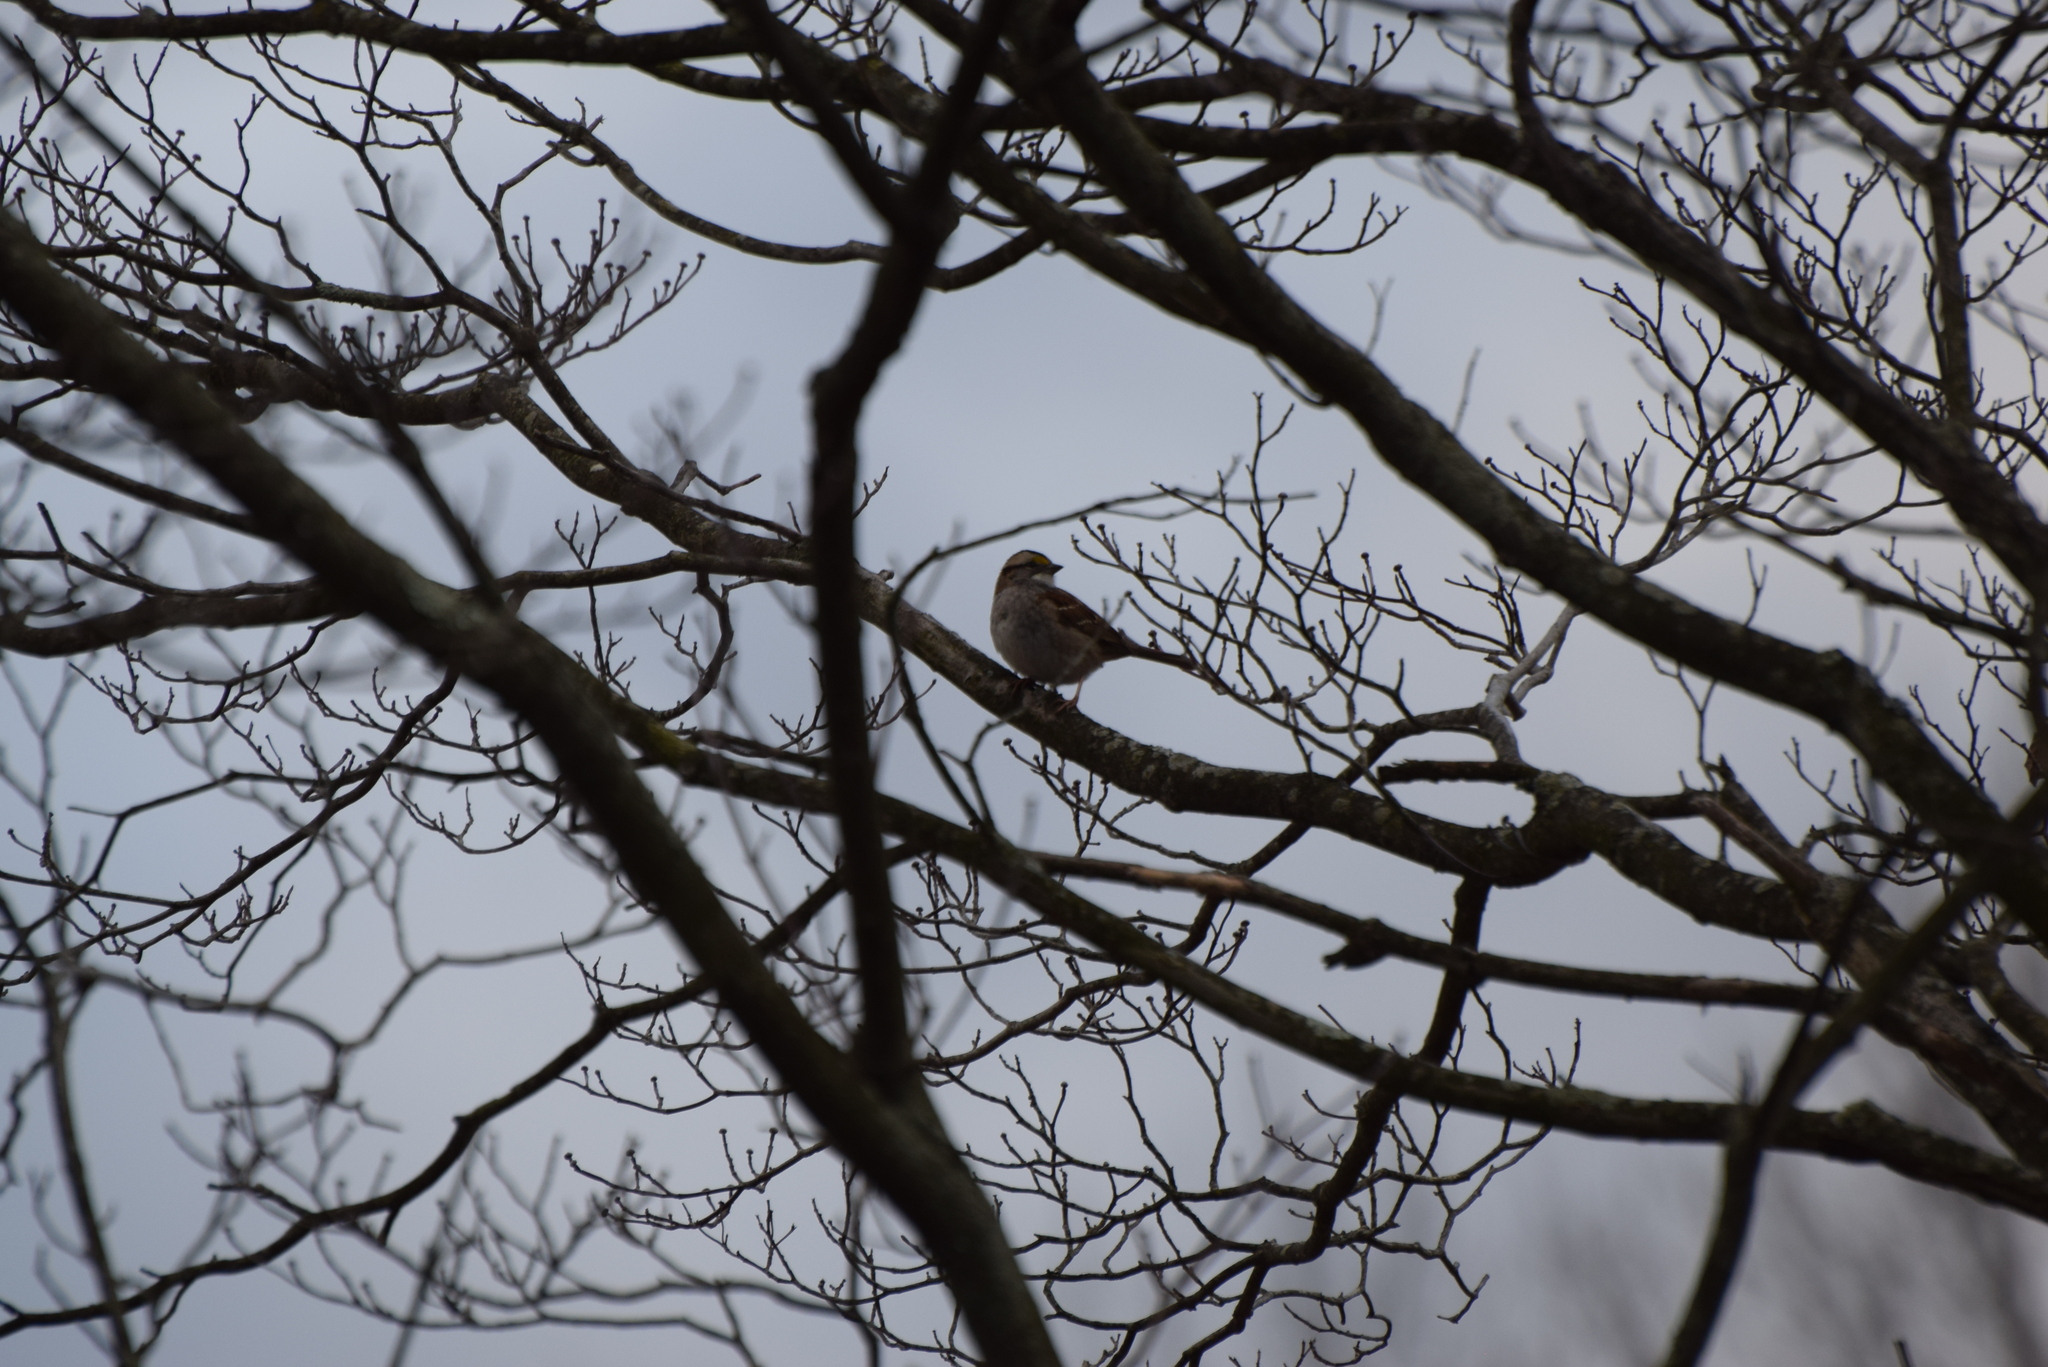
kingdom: Animalia
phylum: Chordata
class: Aves
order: Passeriformes
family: Passerellidae
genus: Zonotrichia
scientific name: Zonotrichia albicollis
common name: White-throated sparrow
